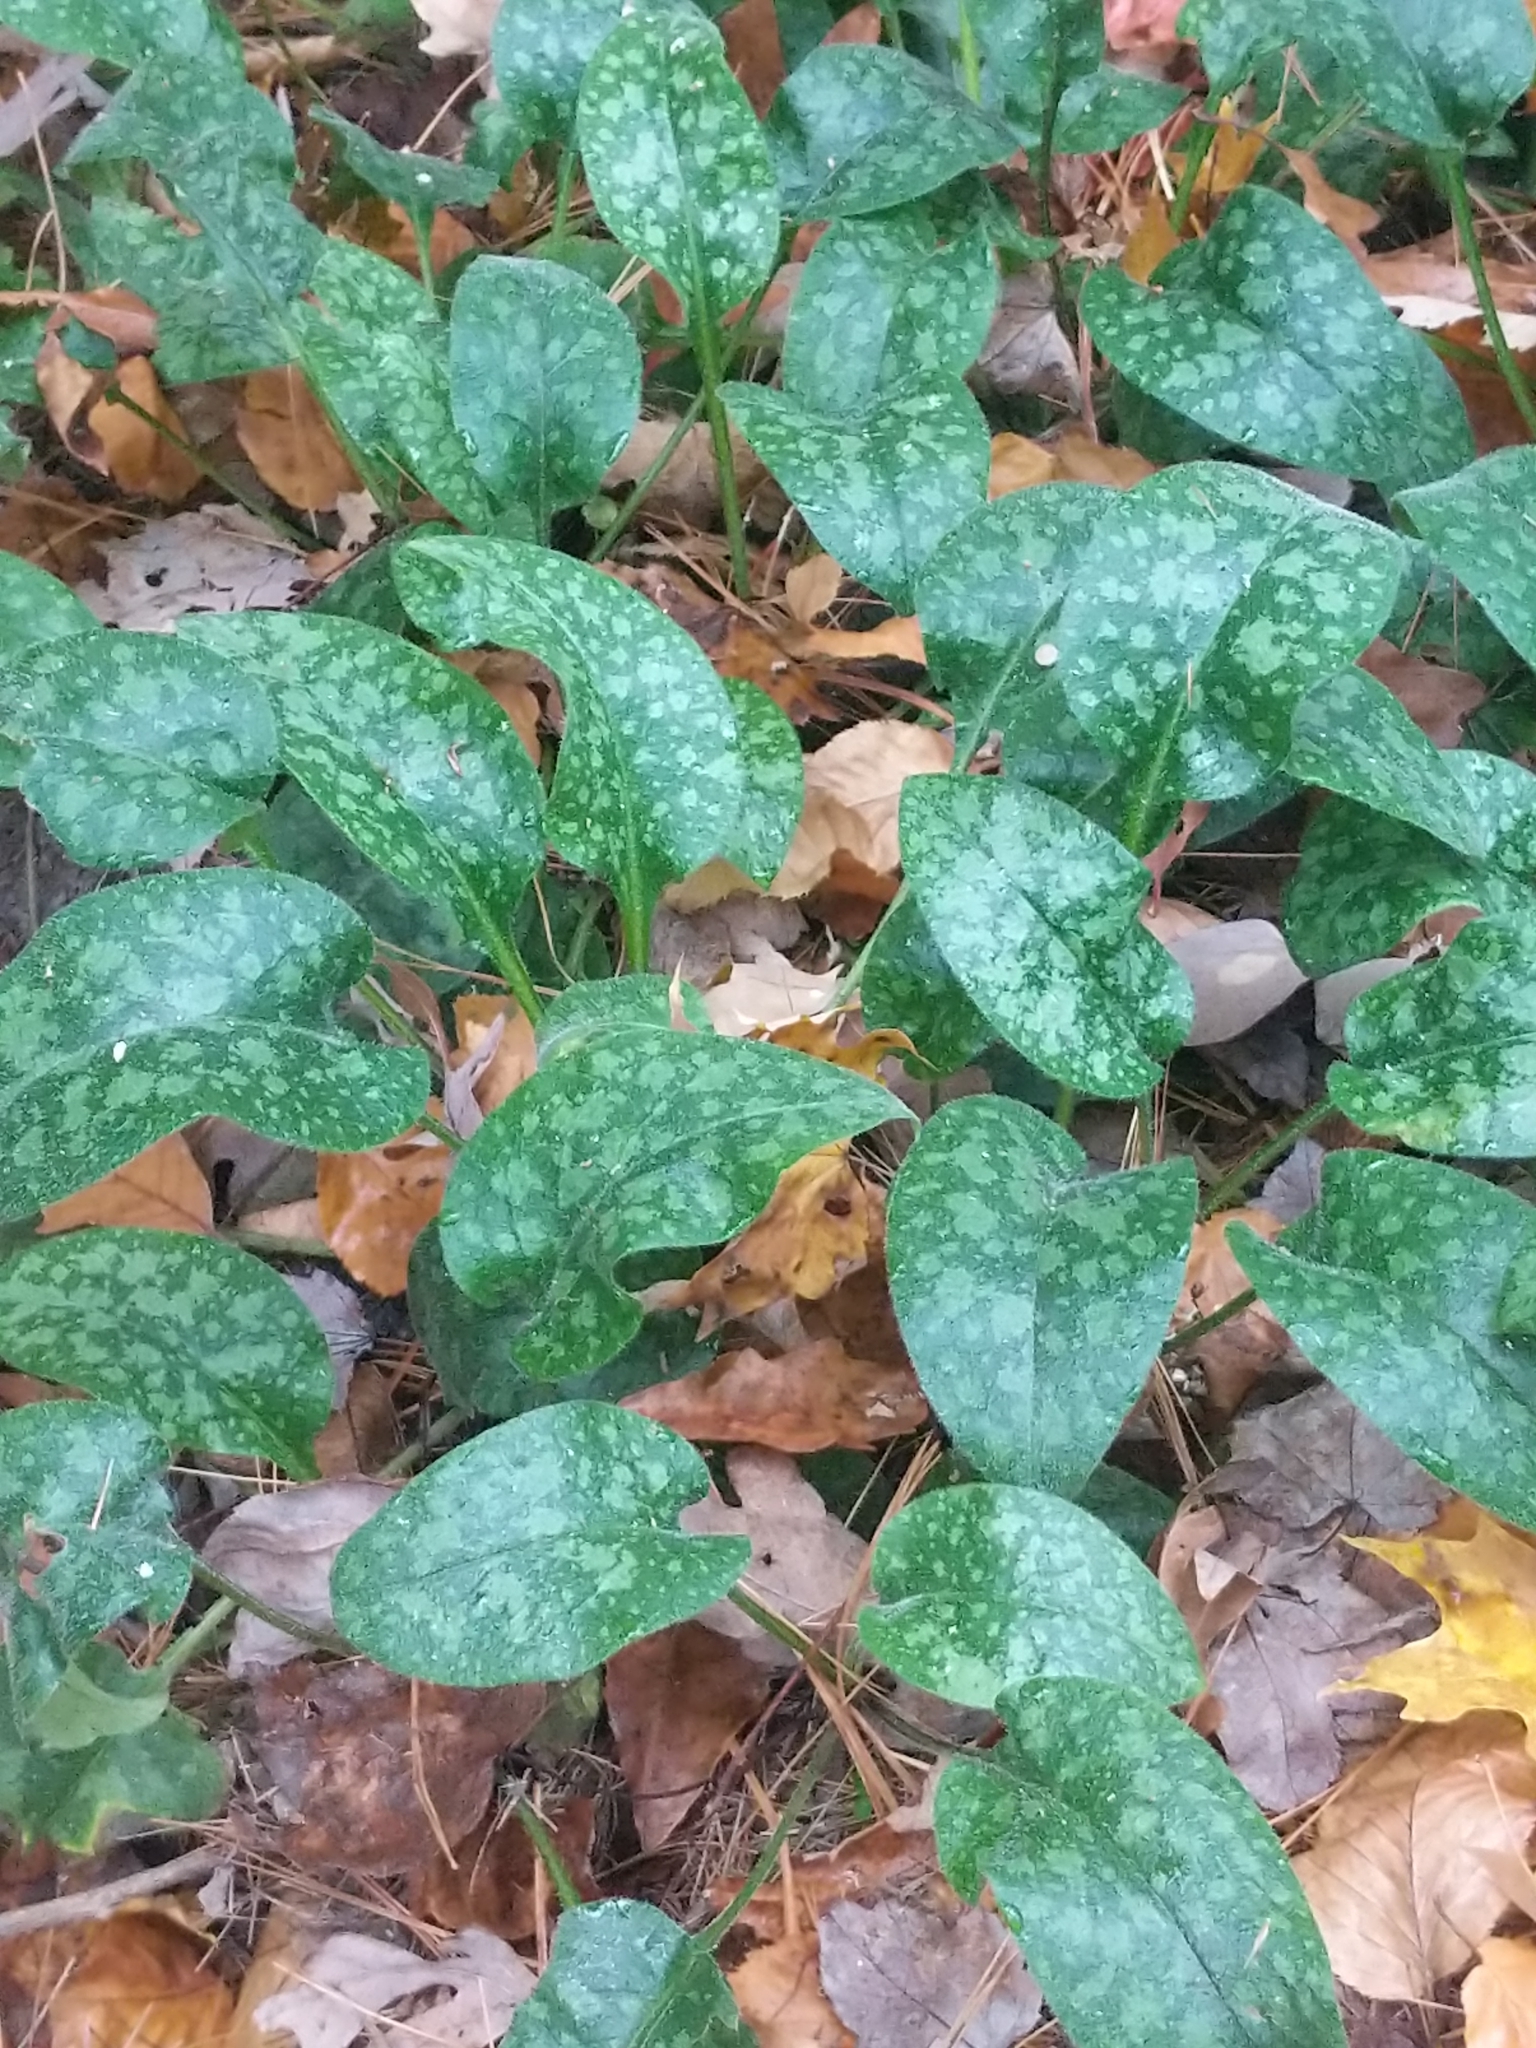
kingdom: Plantae
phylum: Tracheophyta
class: Magnoliopsida
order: Boraginales
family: Boraginaceae
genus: Pulmonaria
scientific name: Pulmonaria officinalis
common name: Lungwort
